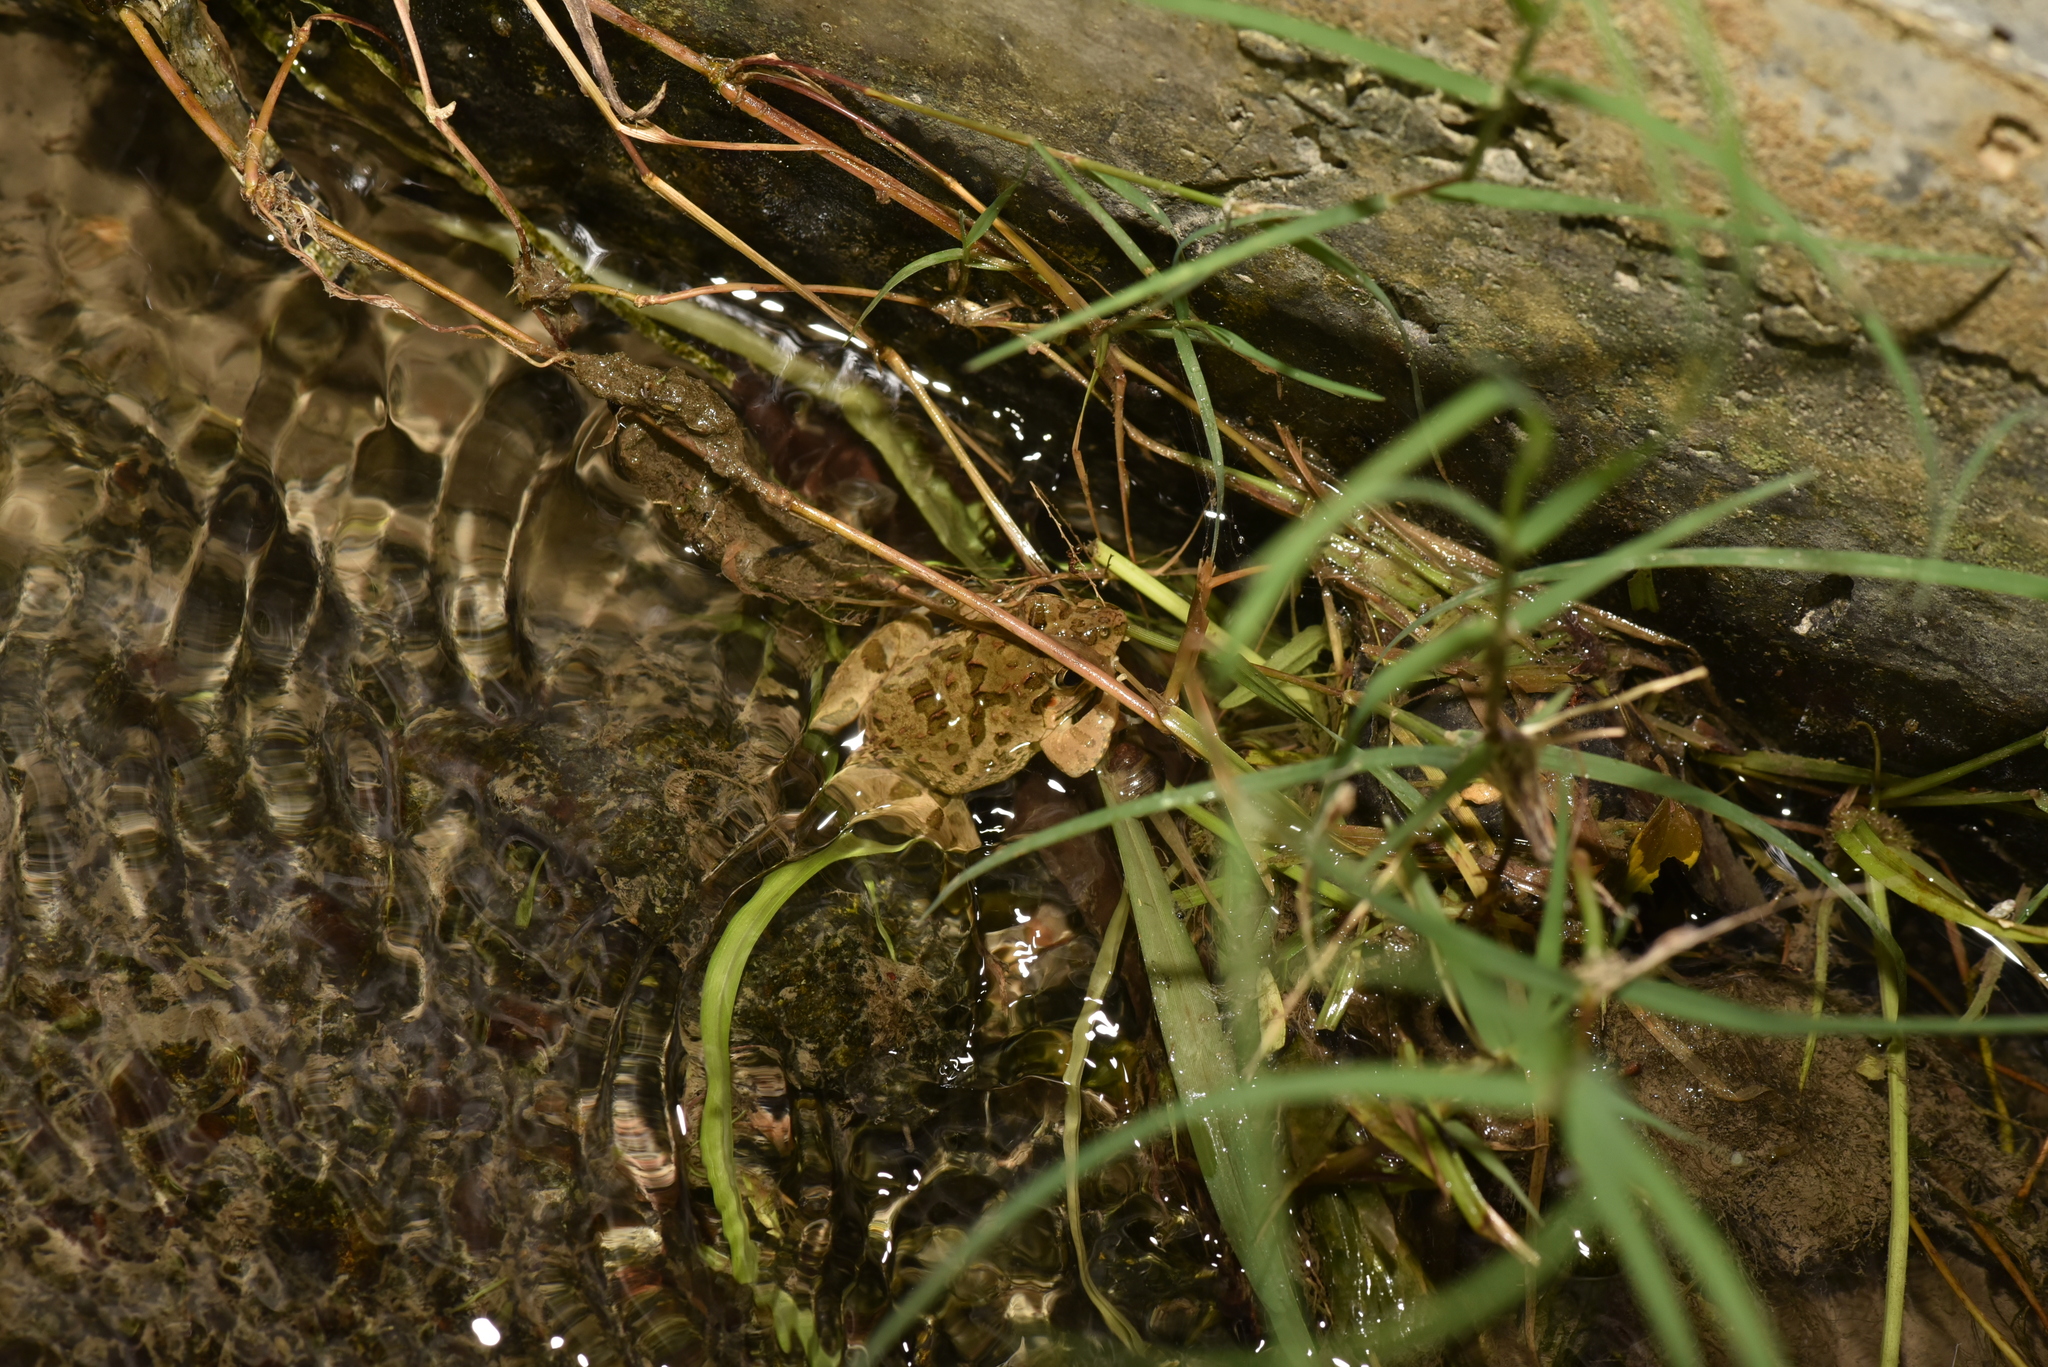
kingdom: Animalia
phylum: Chordata
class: Amphibia
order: Anura
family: Dicroglossidae
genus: Fejervarya
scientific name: Fejervarya limnocharis
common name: Asian grass frog/common pond frog/field frog/grass frog/indian rice frog
